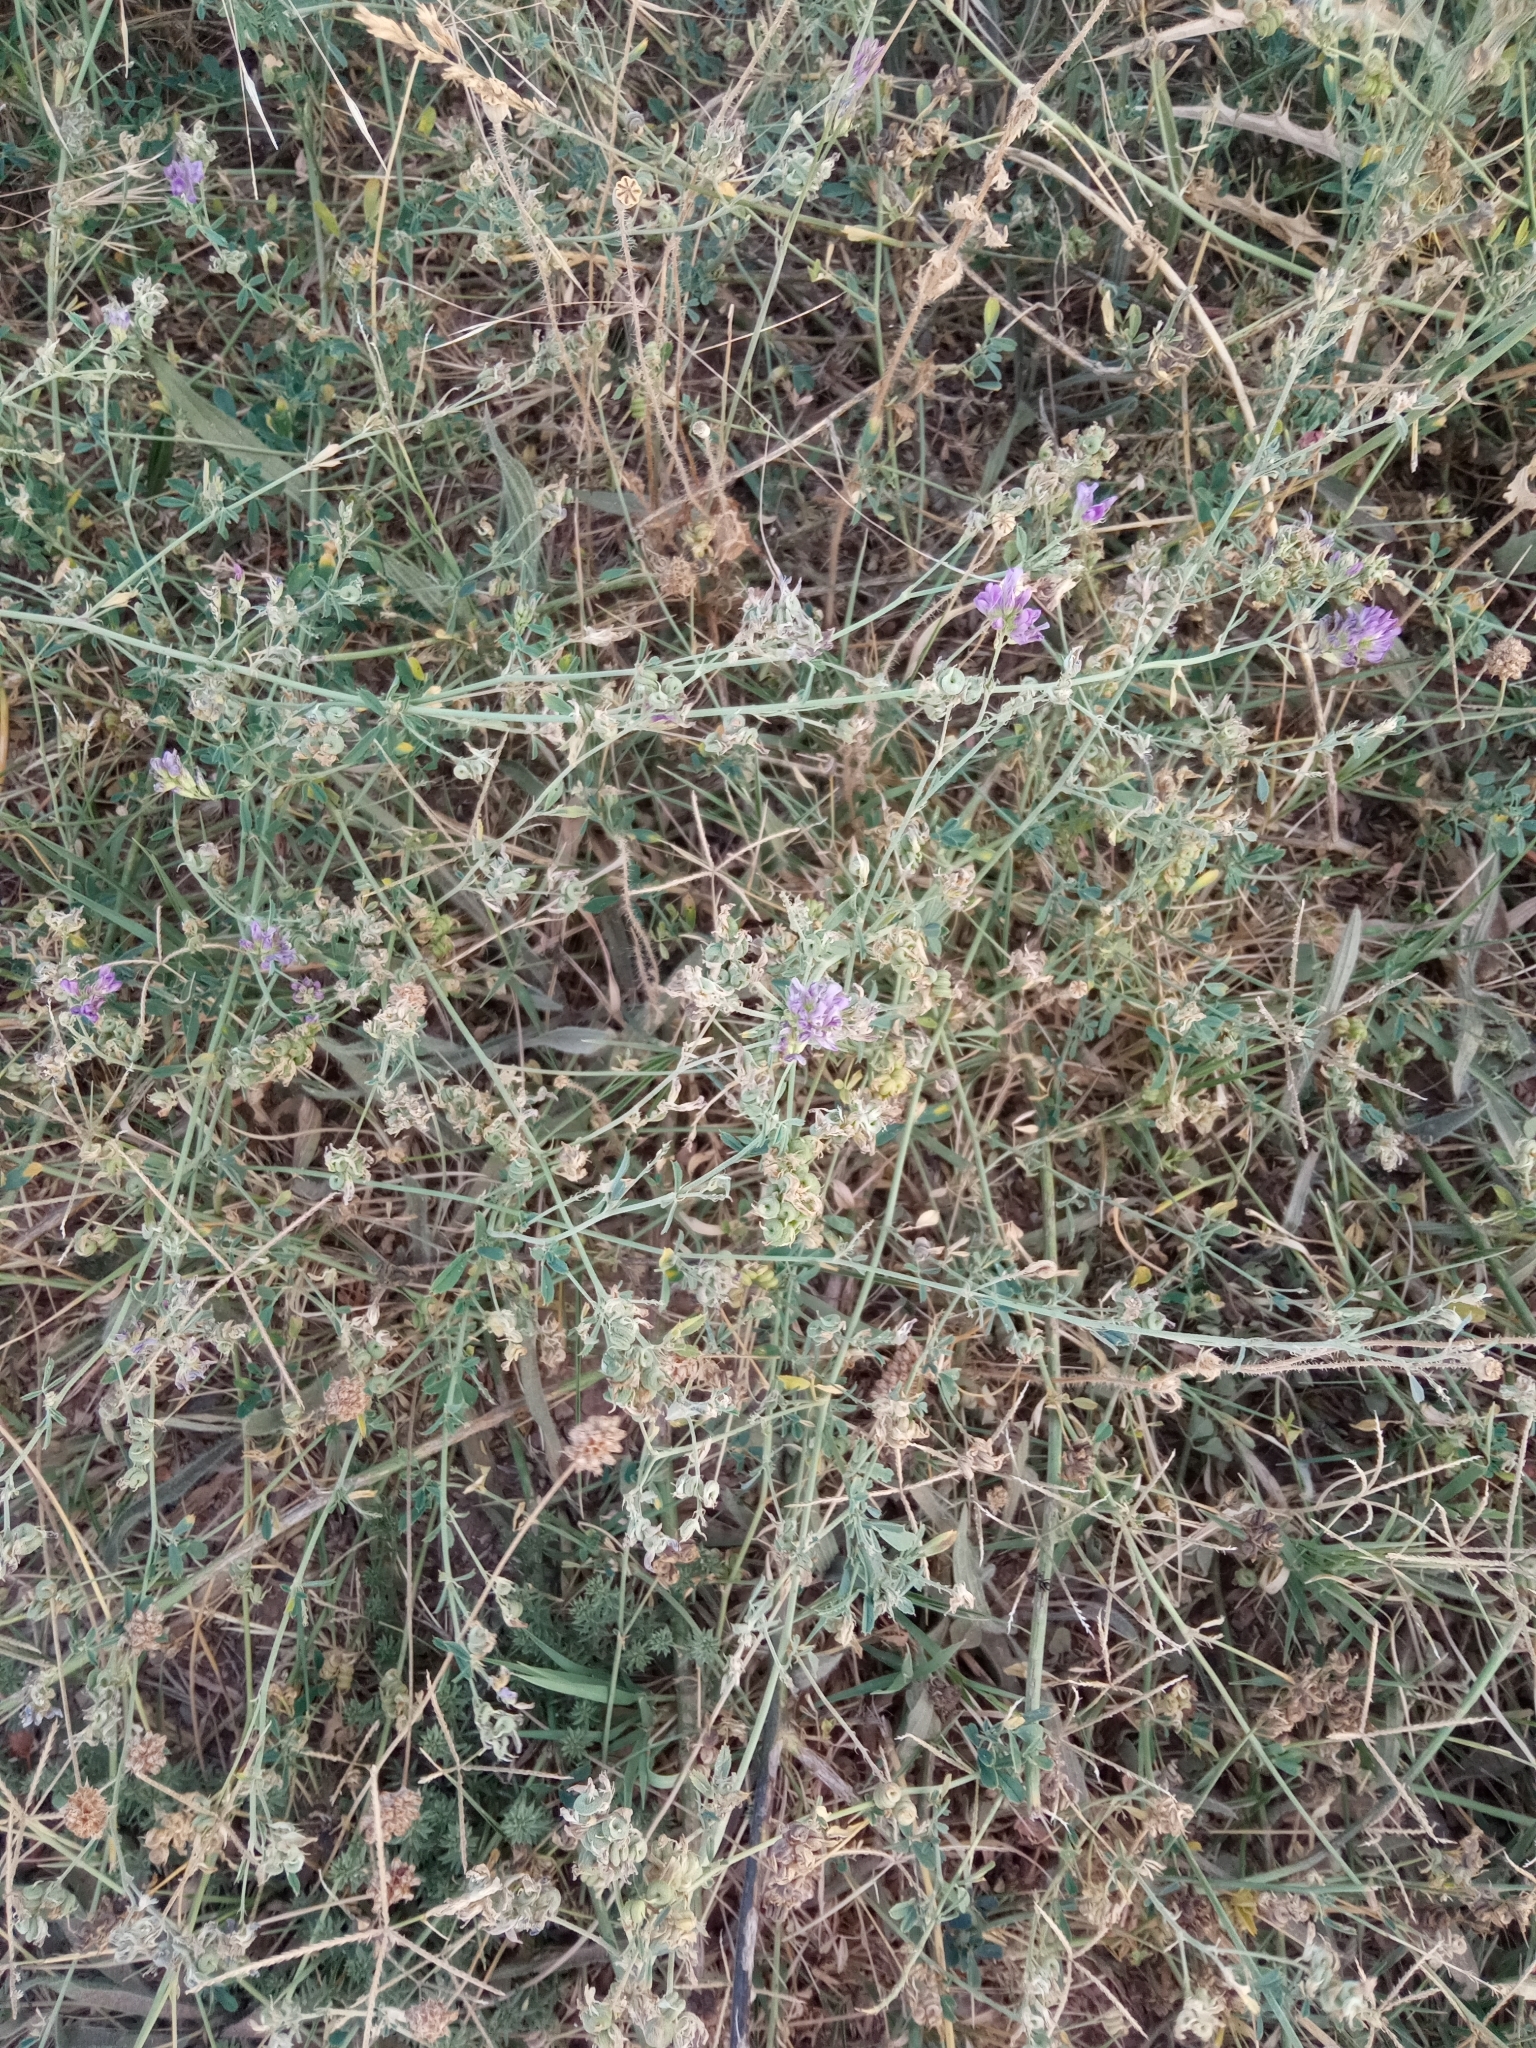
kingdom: Plantae
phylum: Tracheophyta
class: Magnoliopsida
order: Fabales
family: Fabaceae
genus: Medicago
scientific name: Medicago sativa
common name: Alfalfa
